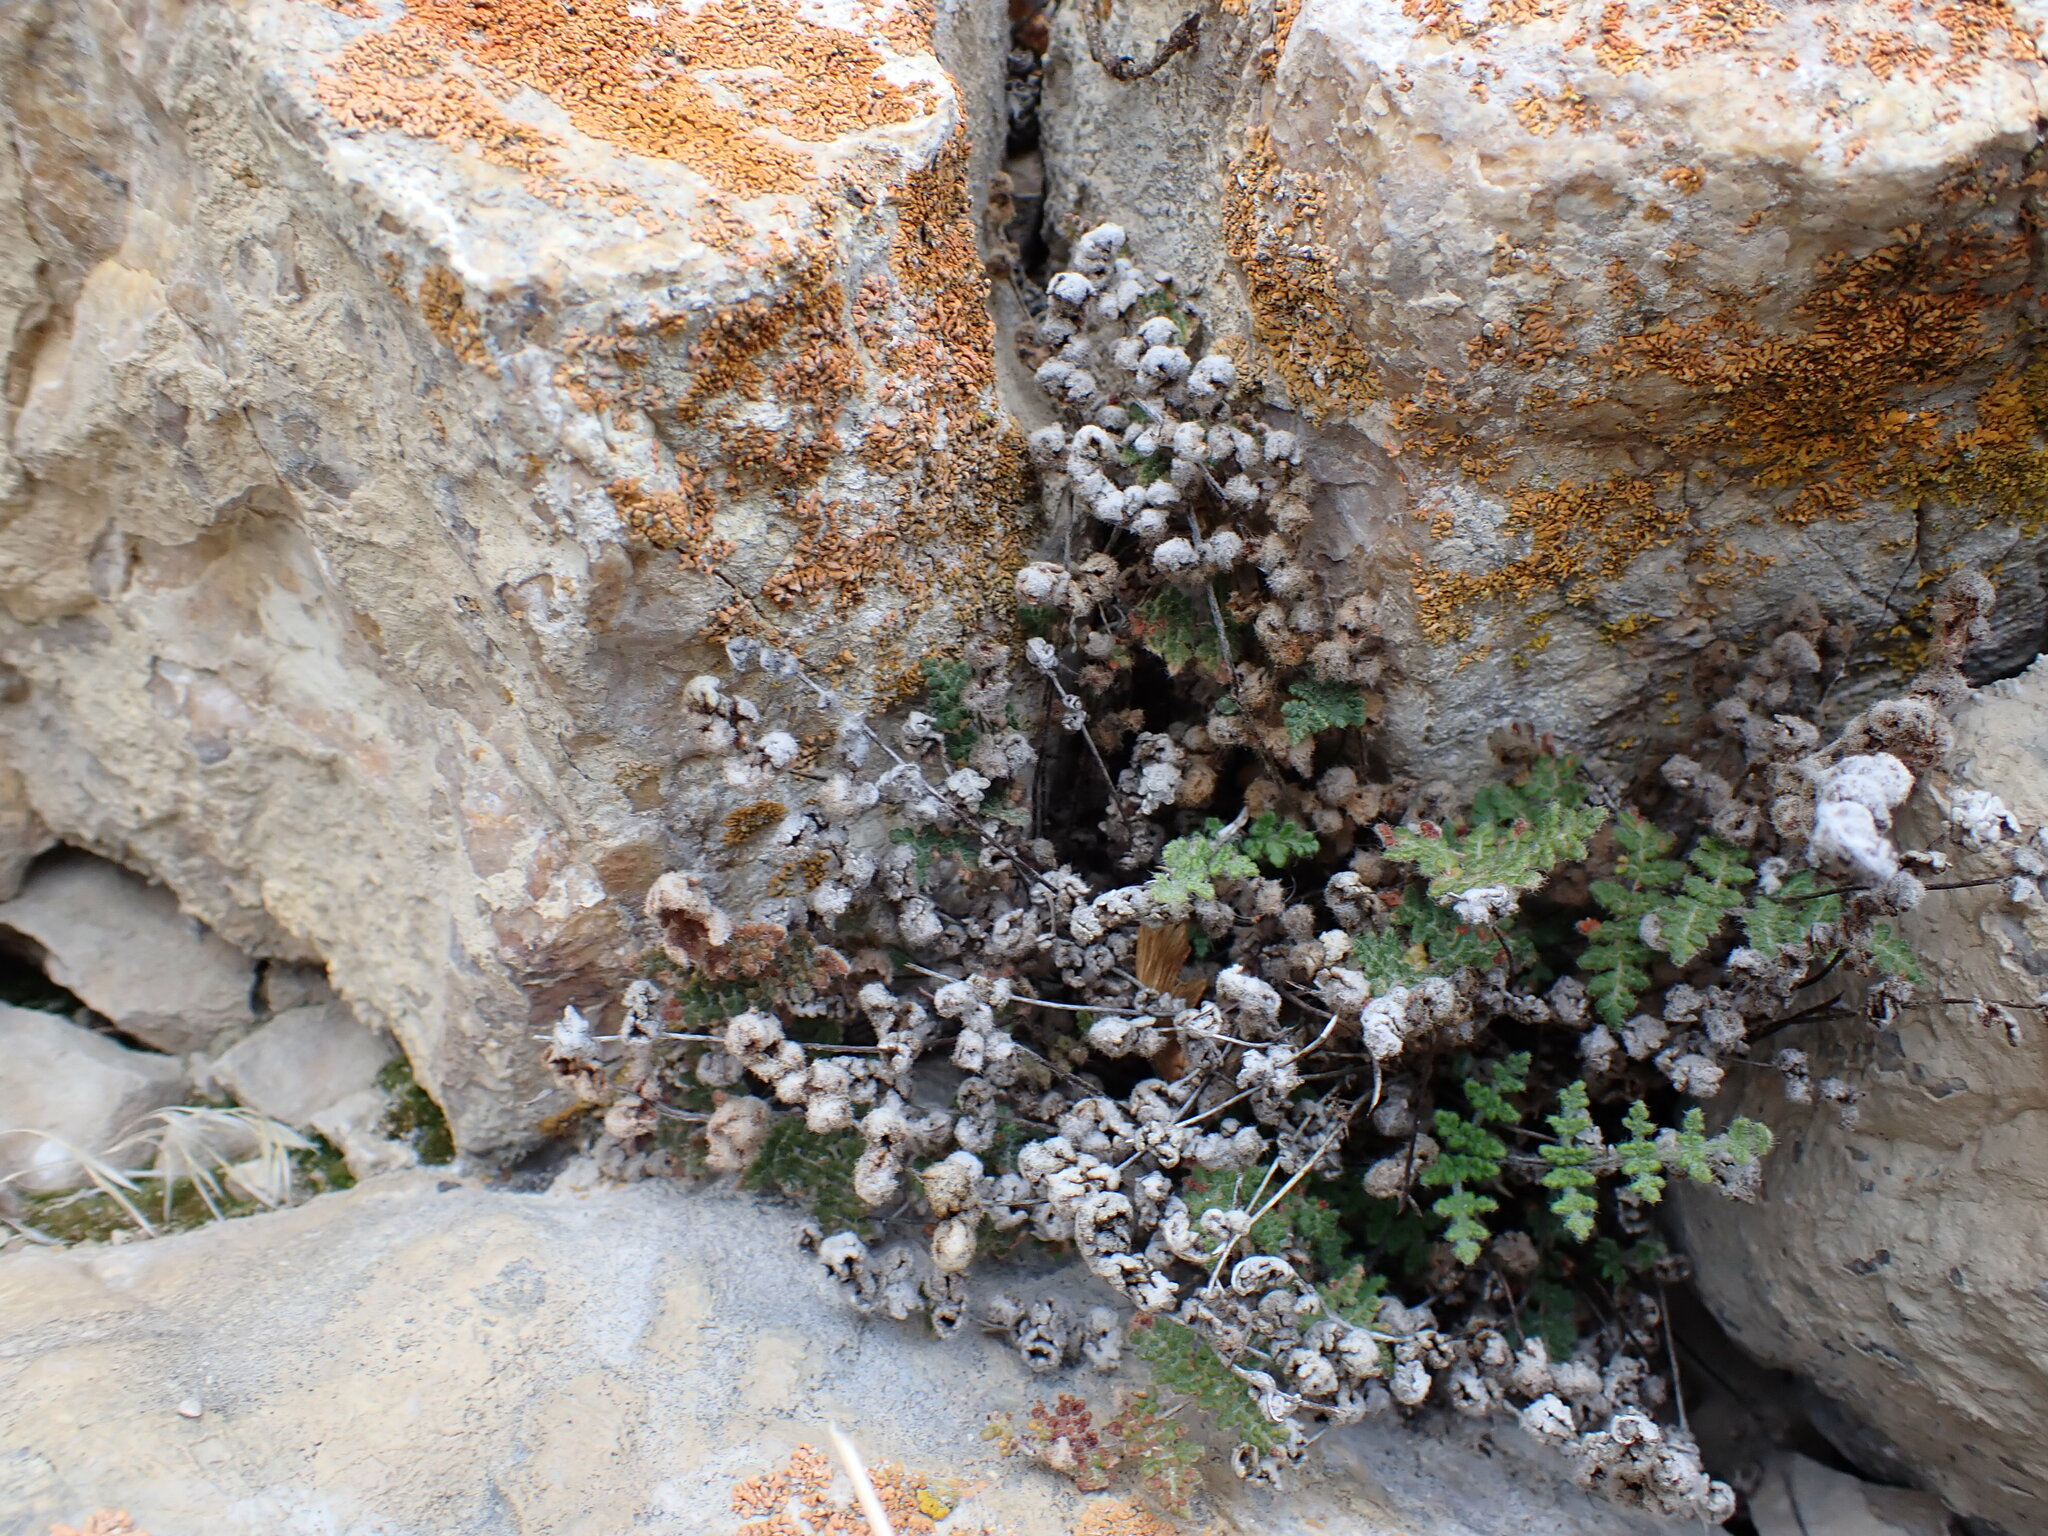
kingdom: Plantae
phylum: Tracheophyta
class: Polypodiopsida
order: Polypodiales
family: Pteridaceae
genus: Myriopteris
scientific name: Myriopteris gracilis
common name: Fee's lip fern
